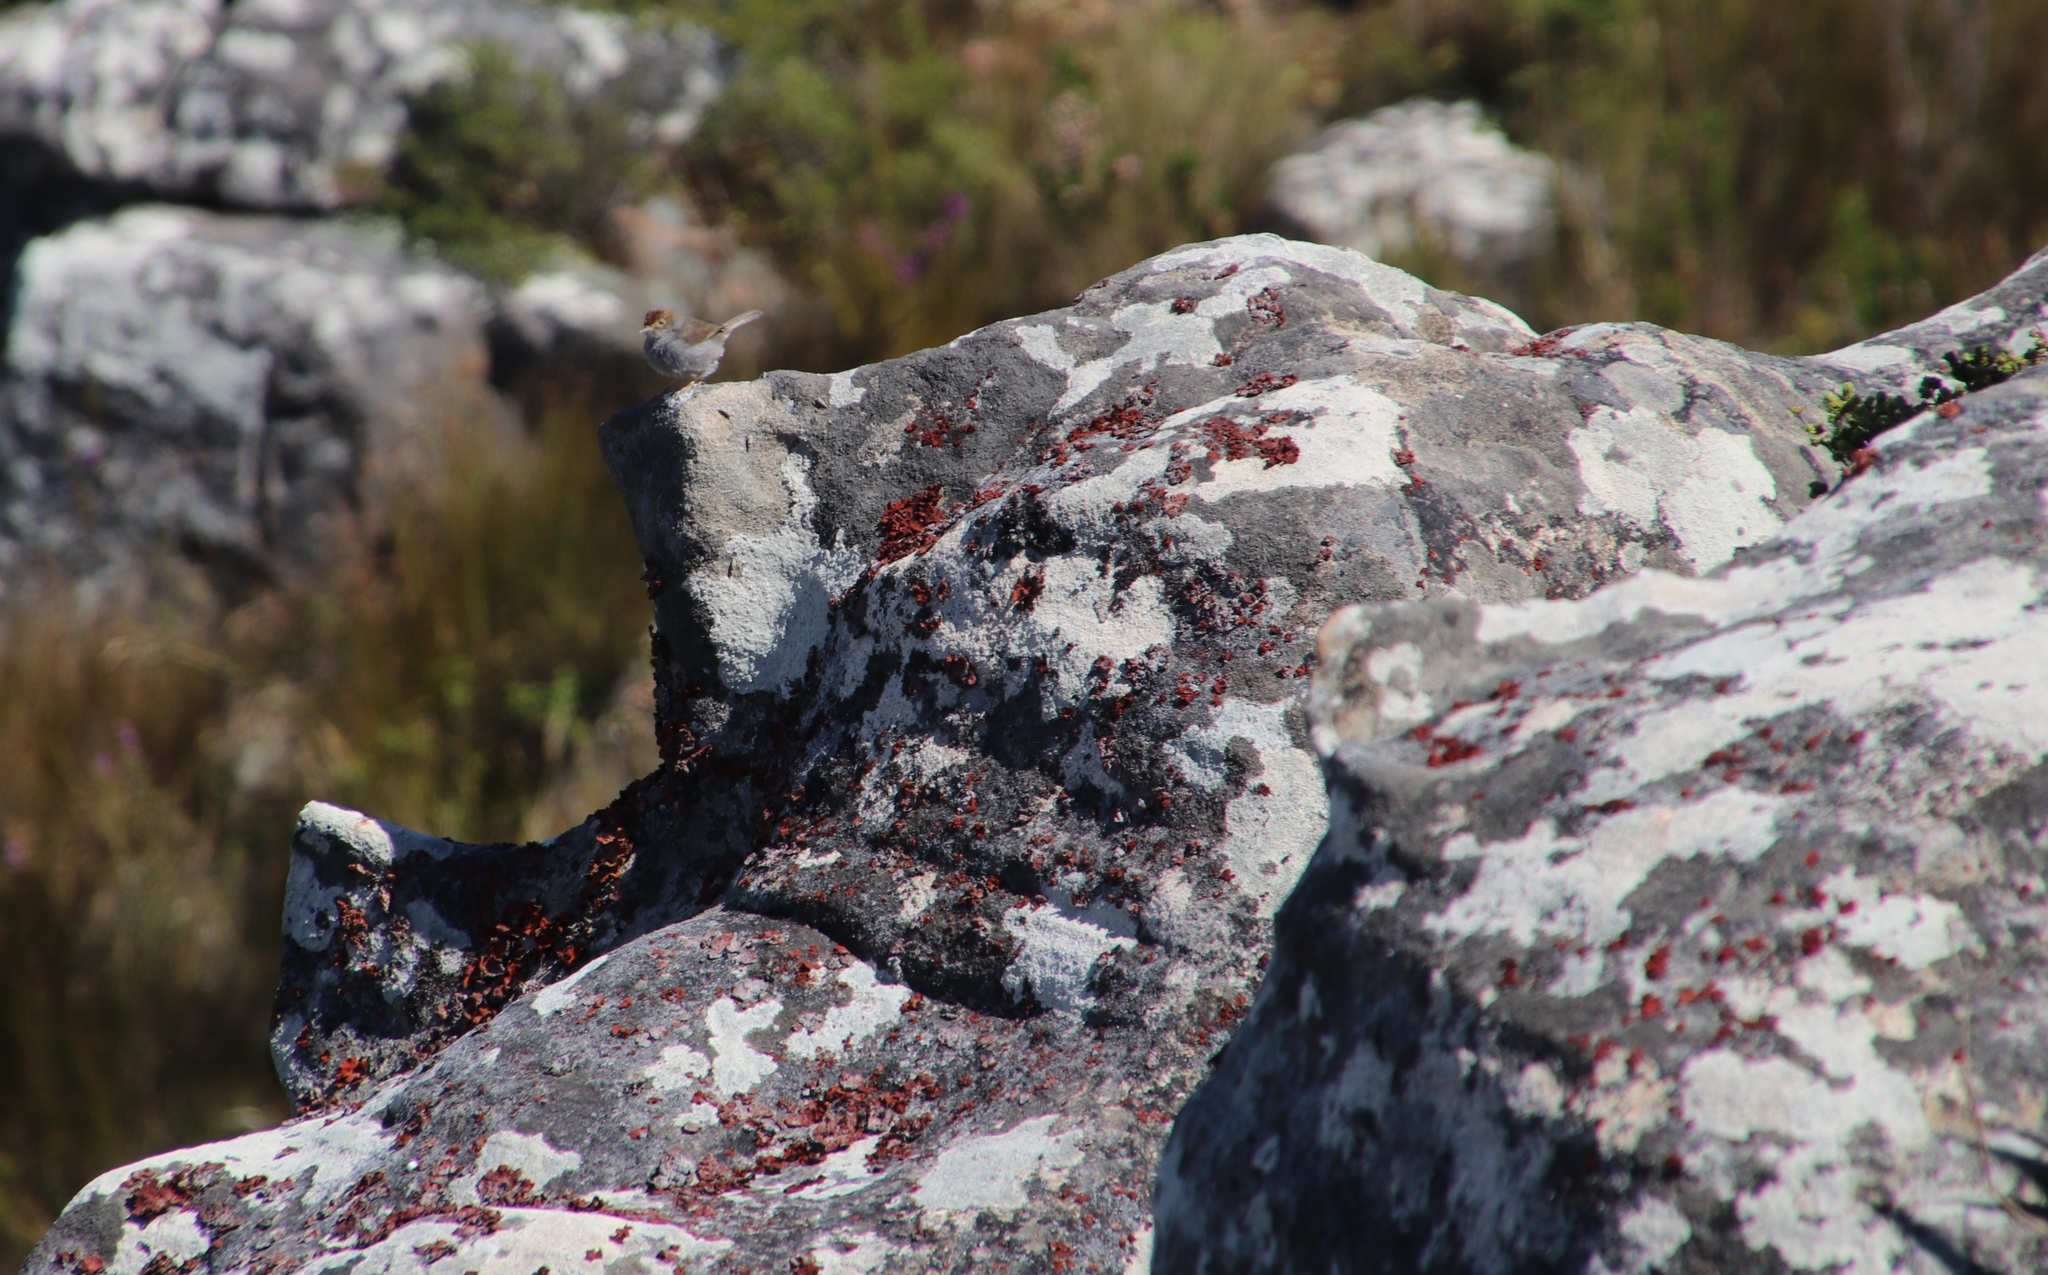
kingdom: Fungi
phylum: Ascomycota
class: Lecanoromycetes
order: Umbilicariales
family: Umbilicariaceae
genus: Lasallia
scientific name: Lasallia rubiginosa
